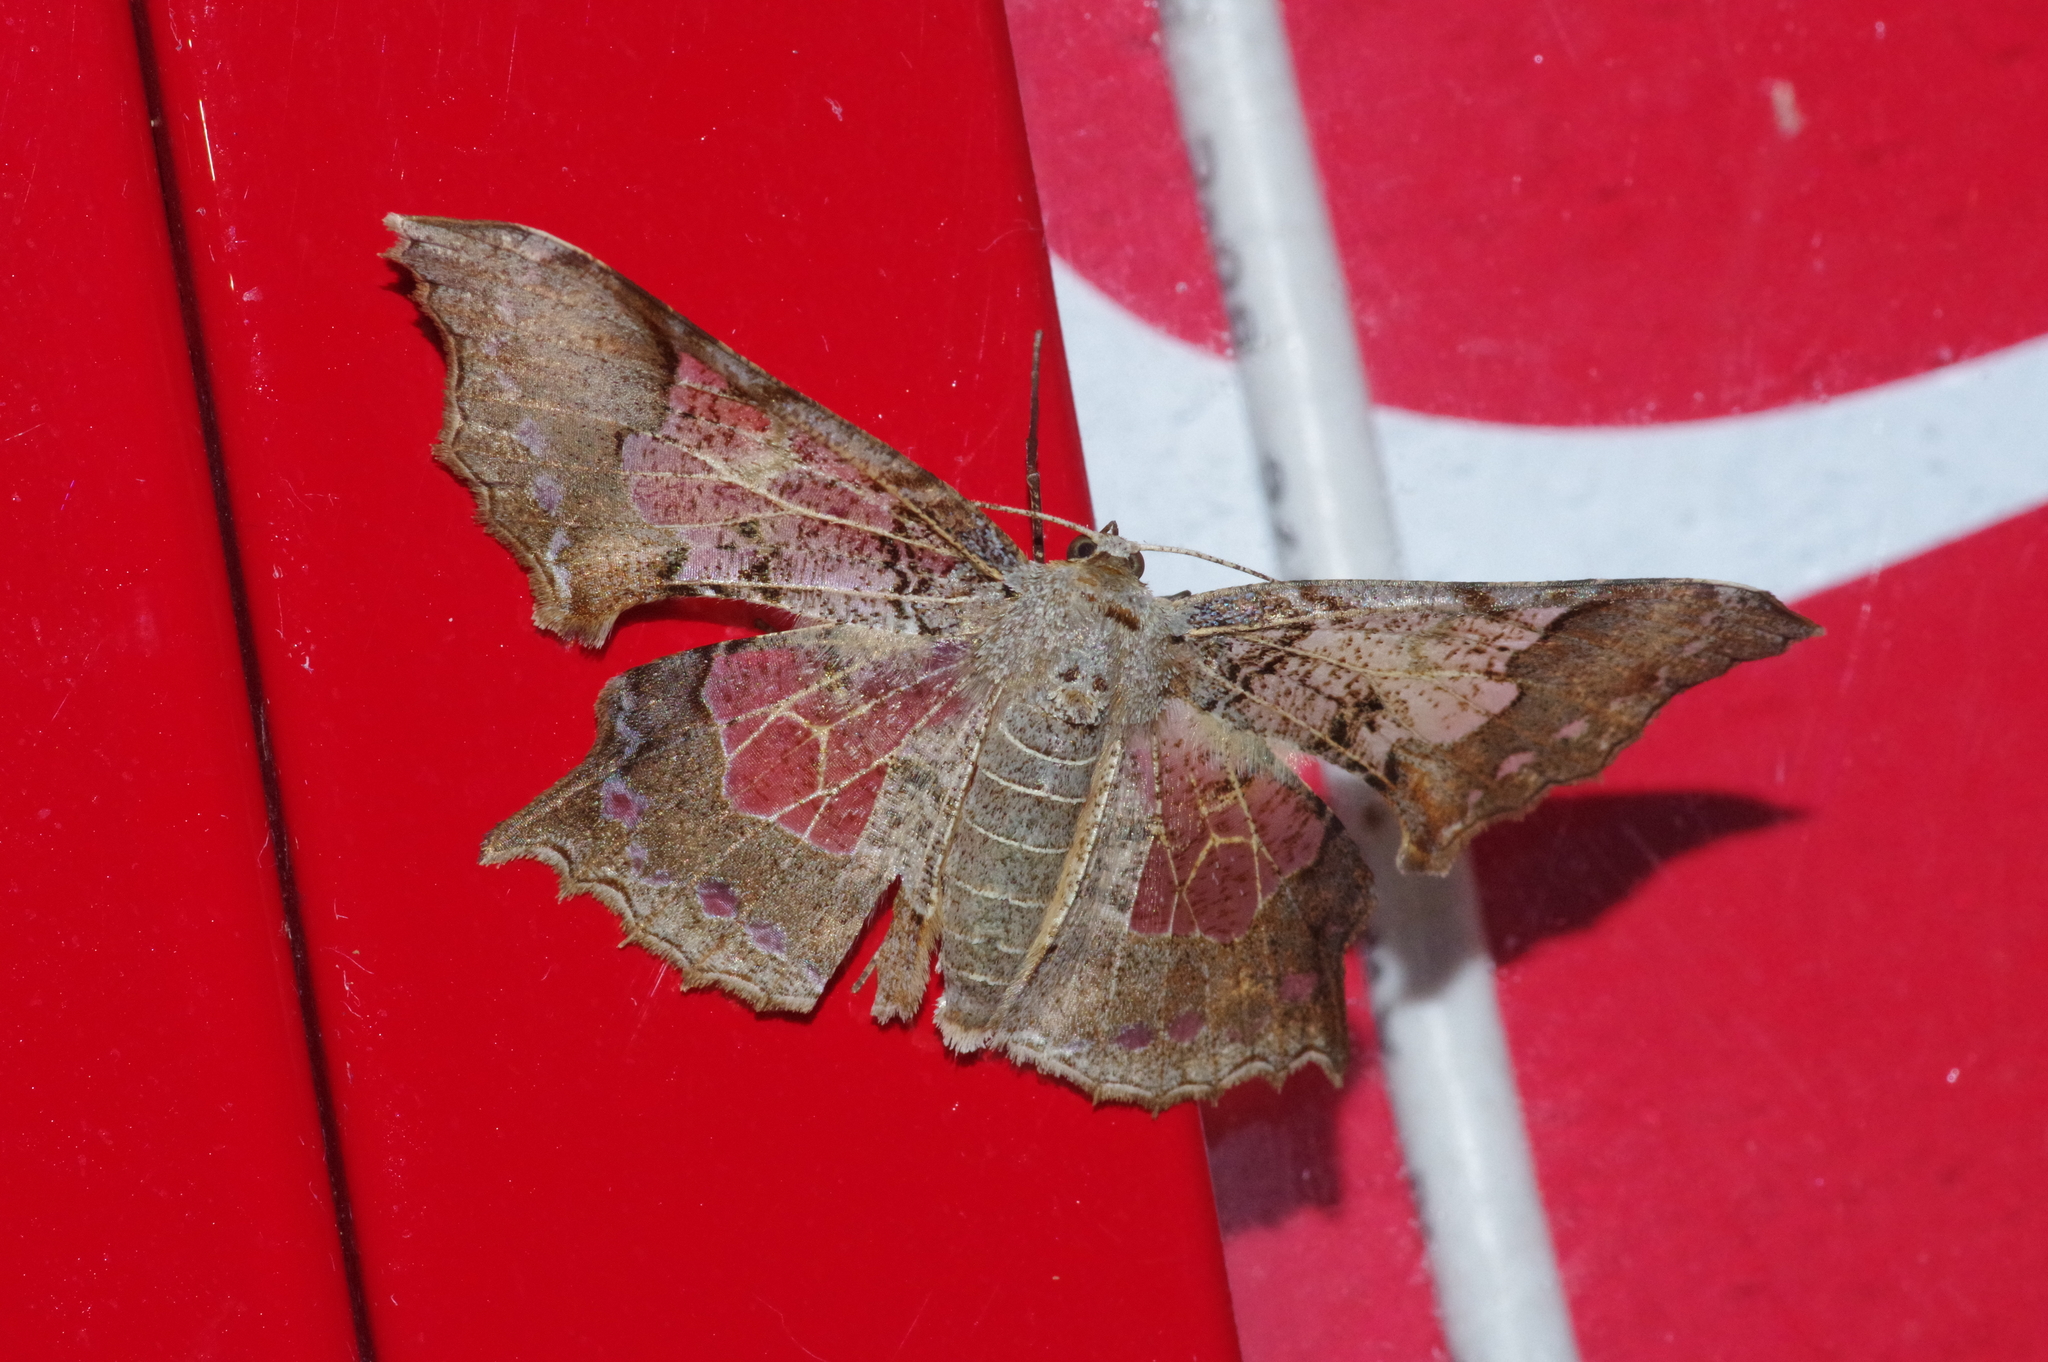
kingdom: Animalia
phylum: Arthropoda
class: Insecta
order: Lepidoptera
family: Geometridae
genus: Krananda
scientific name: Krananda semihyalina
